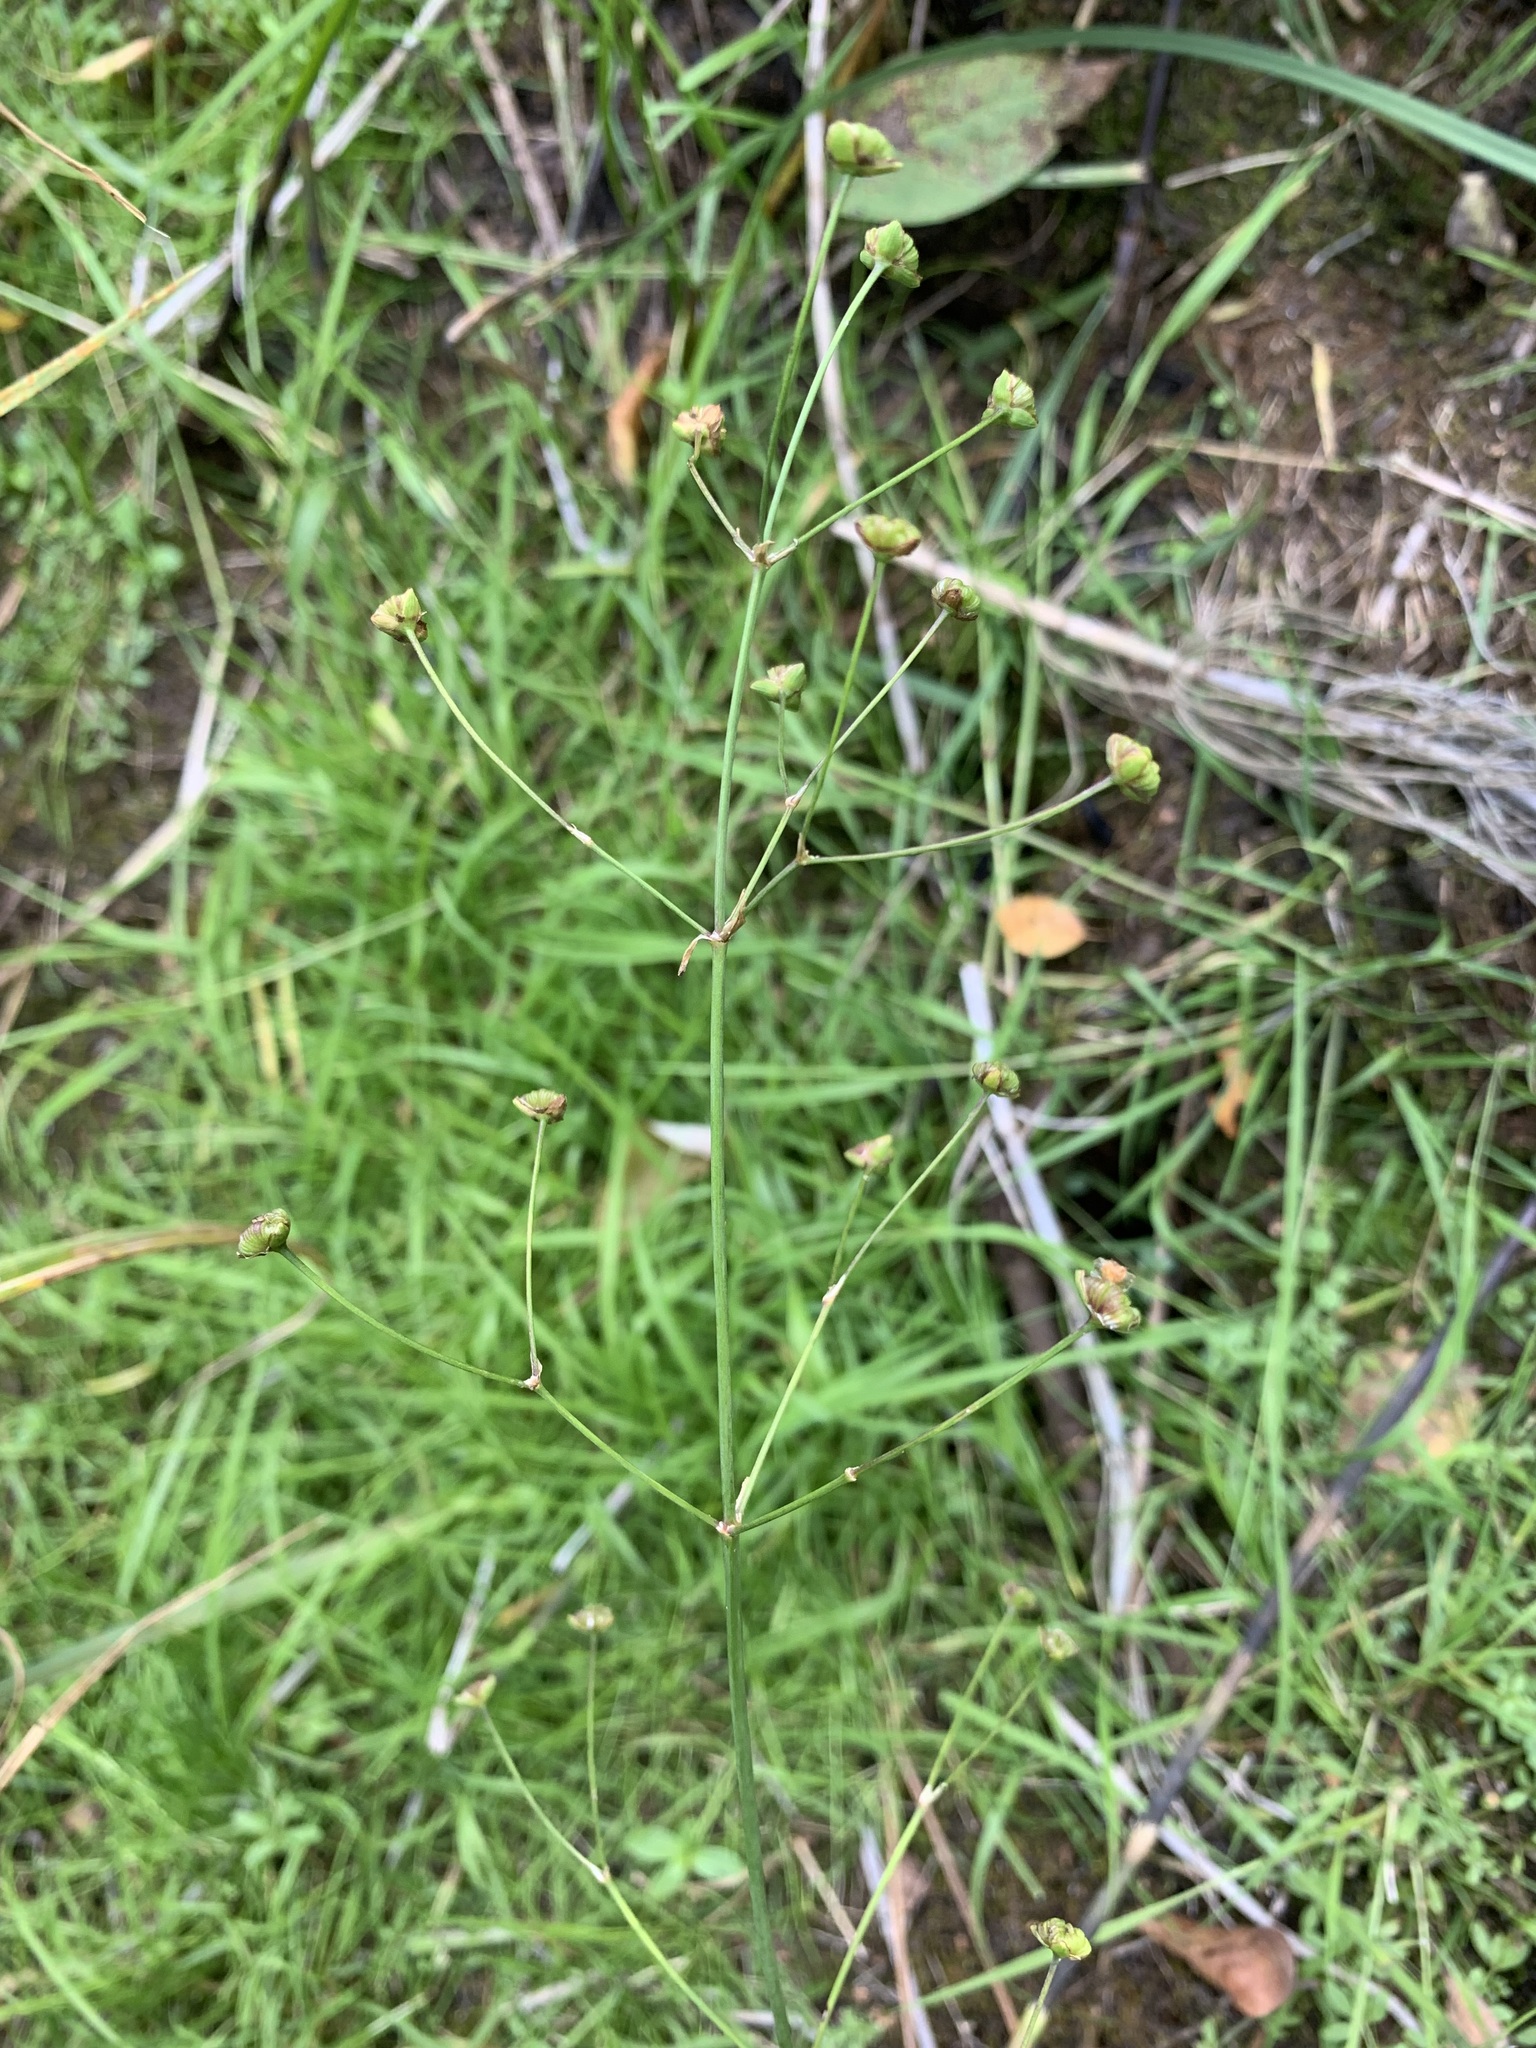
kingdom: Plantae
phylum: Tracheophyta
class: Liliopsida
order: Alismatales
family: Alismataceae
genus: Alisma
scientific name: Alisma plantago-aquatica
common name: Water-plantain
